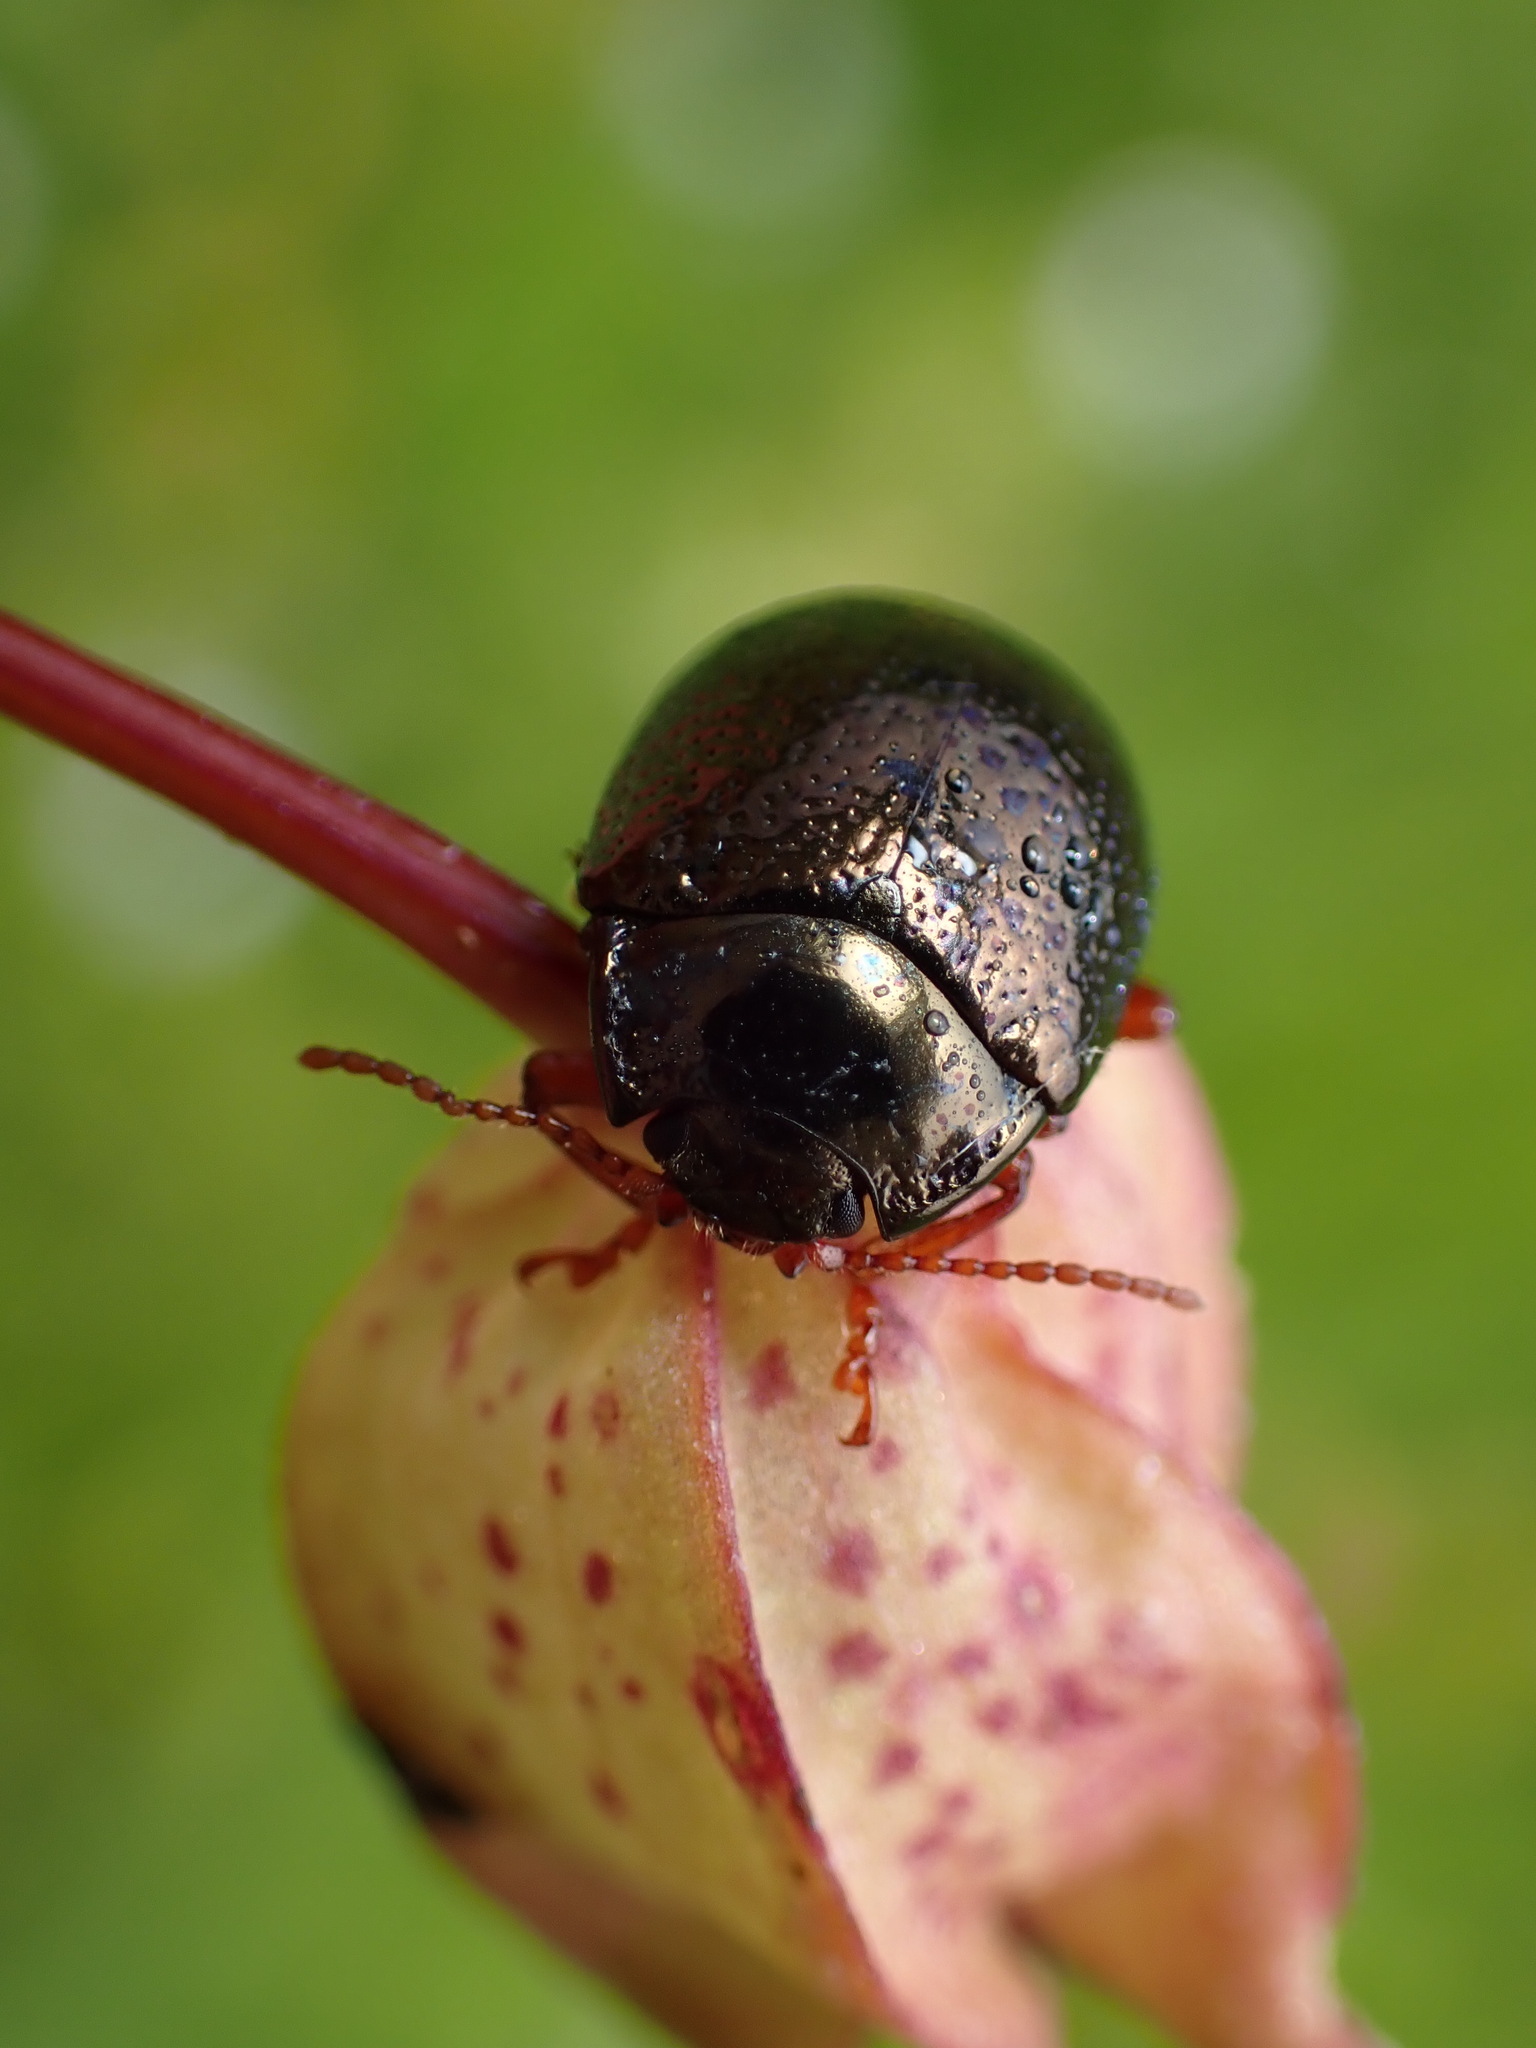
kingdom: Animalia
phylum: Arthropoda
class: Insecta
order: Coleoptera
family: Chrysomelidae
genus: Chrysolina
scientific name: Chrysolina bankii
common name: Leaf beetle
